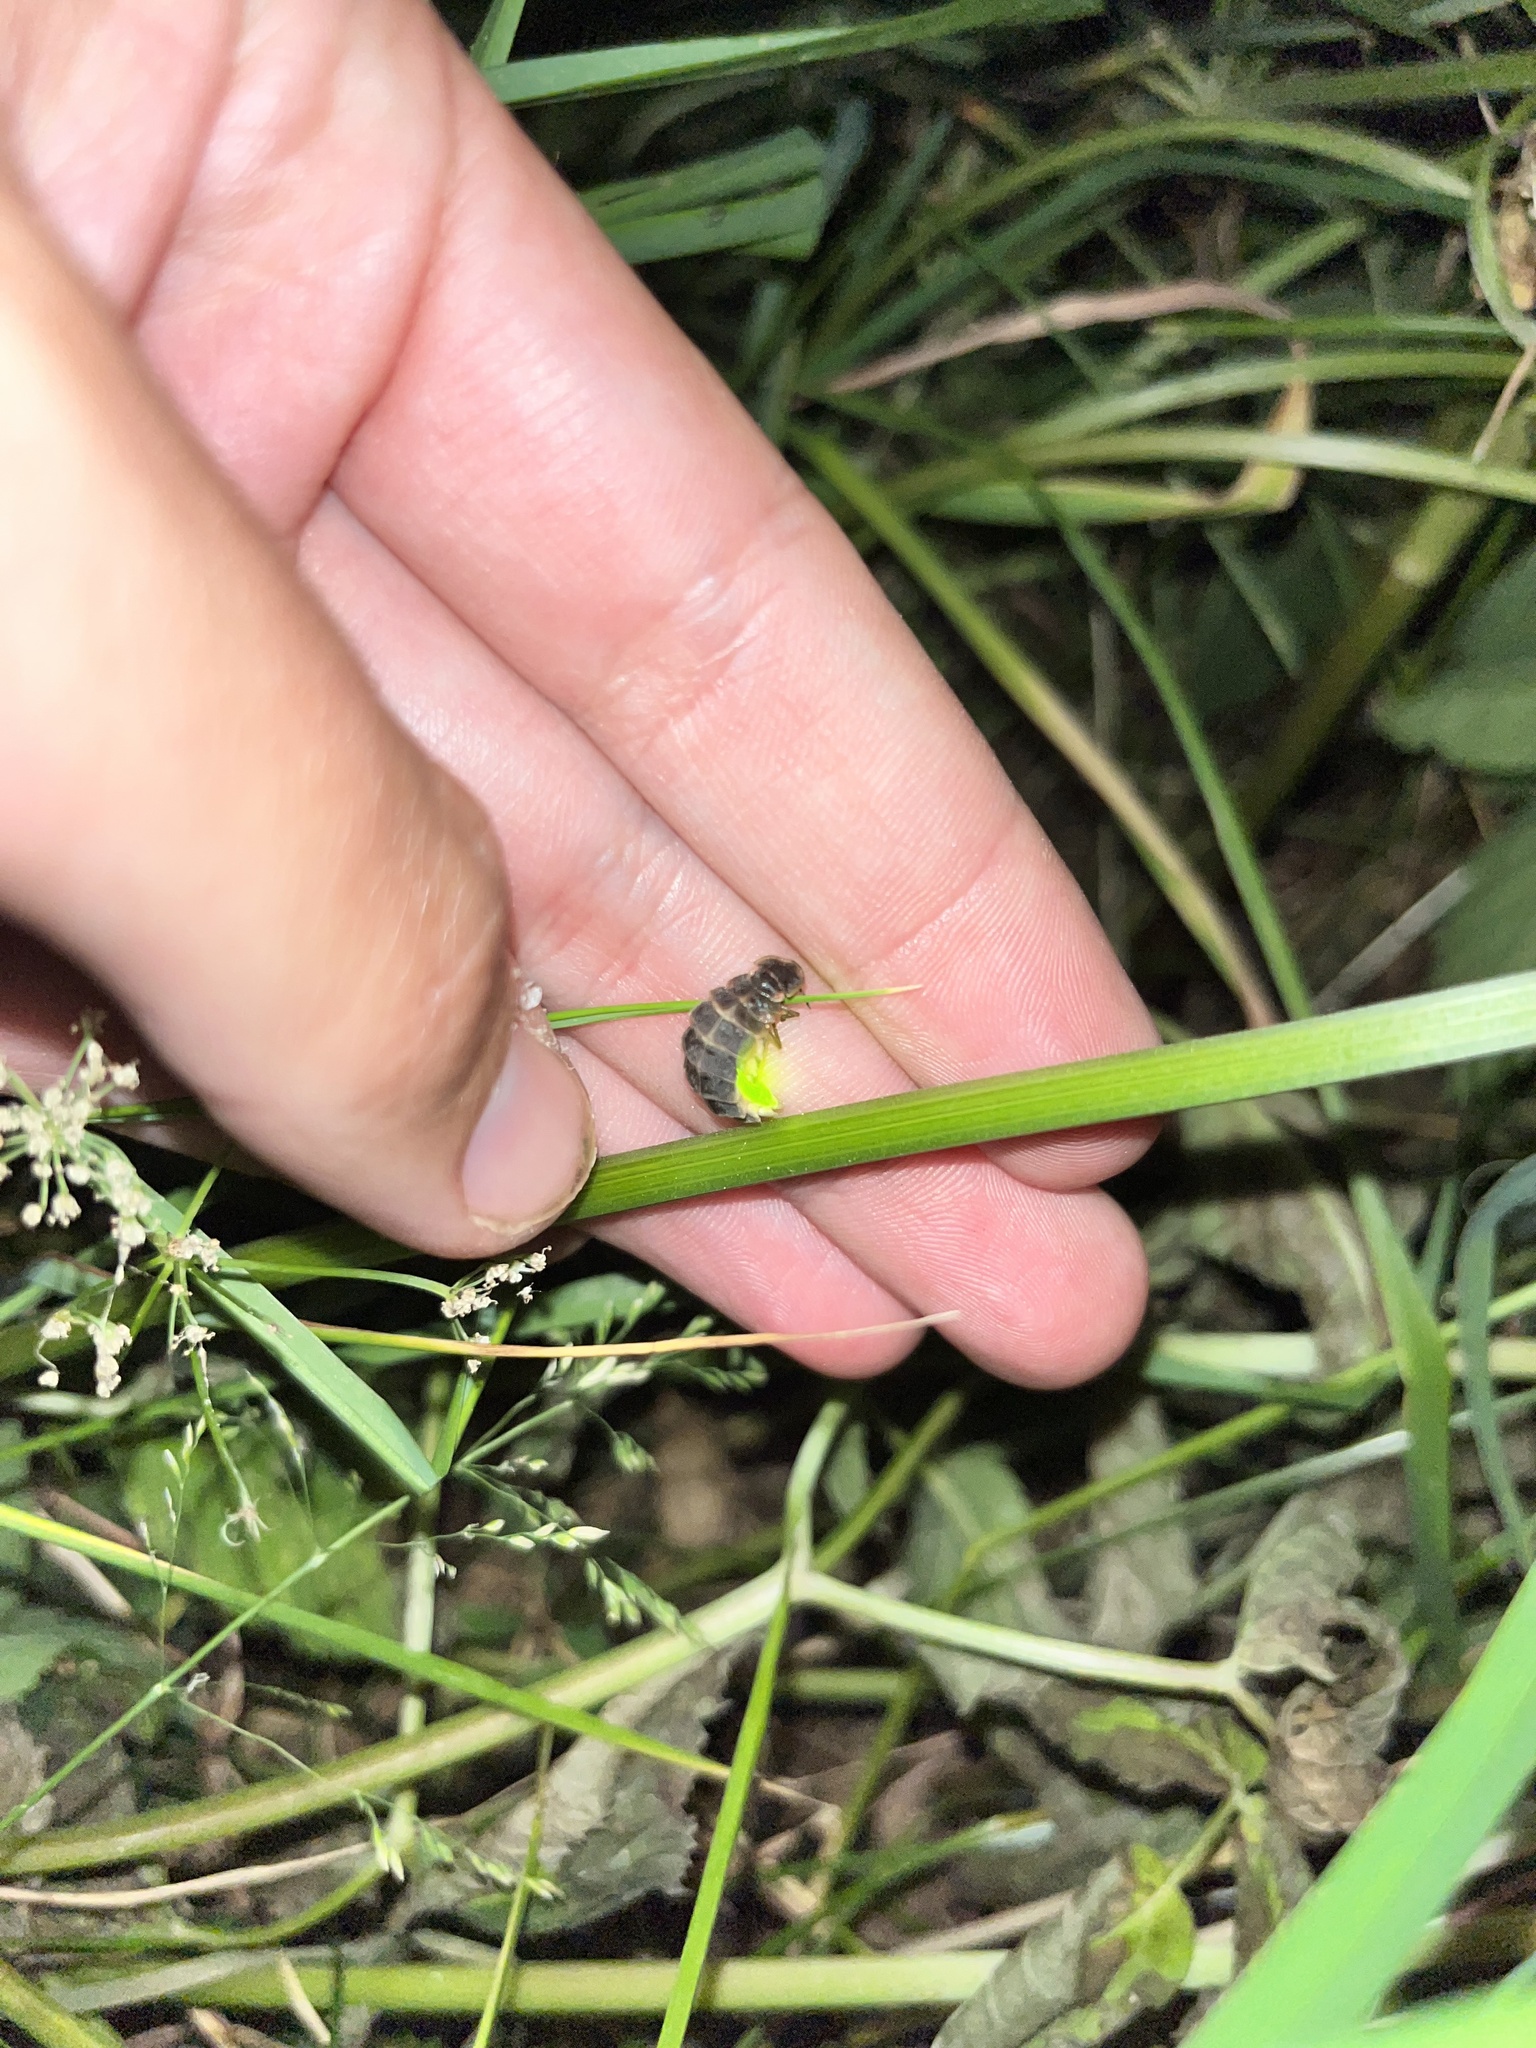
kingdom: Animalia
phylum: Arthropoda
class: Insecta
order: Coleoptera
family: Lampyridae
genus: Lampyris
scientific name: Lampyris noctiluca
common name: Glow-worm
